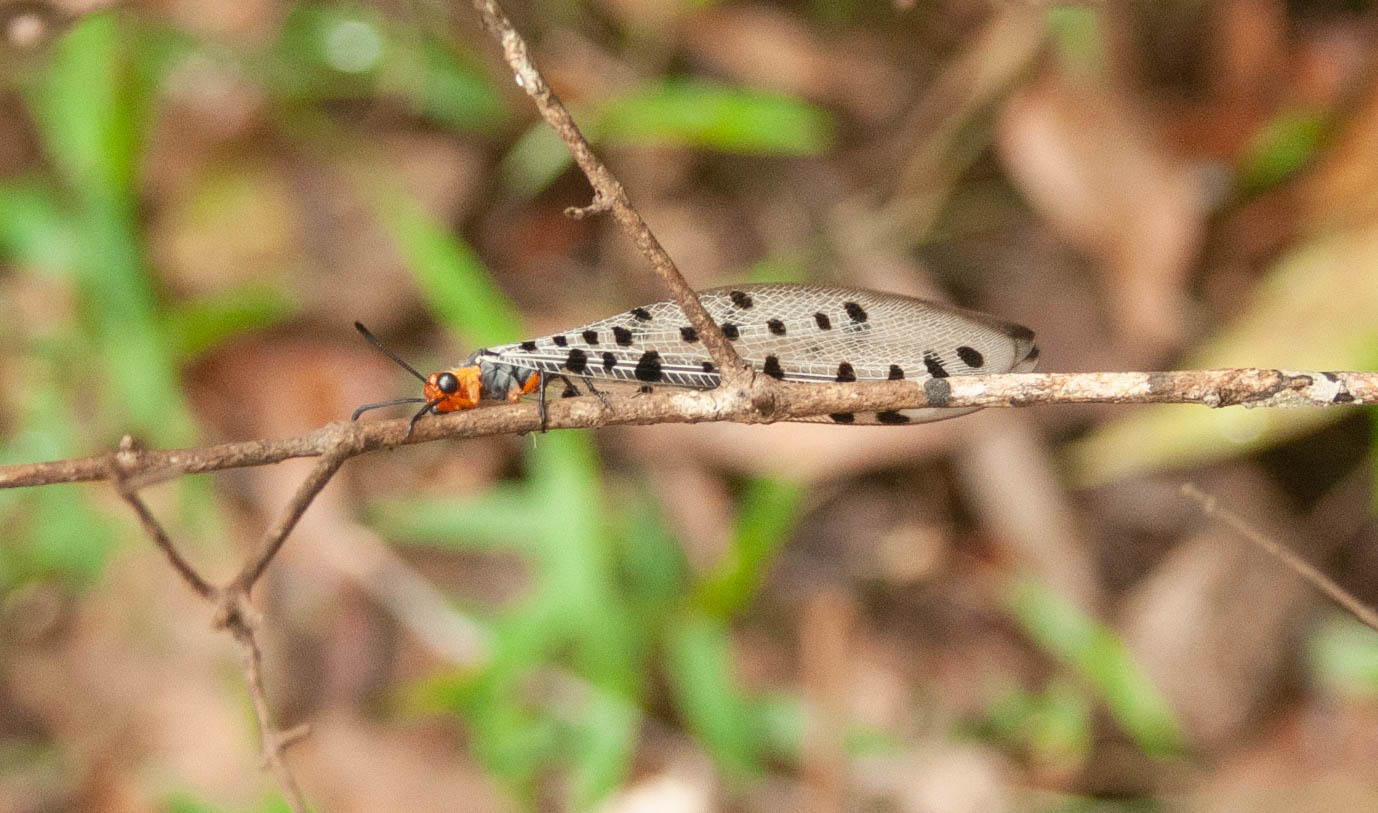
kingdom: Animalia
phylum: Arthropoda
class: Insecta
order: Neuroptera
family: Myrmeleontidae
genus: Myrmeleon
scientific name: Myrmeleon erythrocephalus
